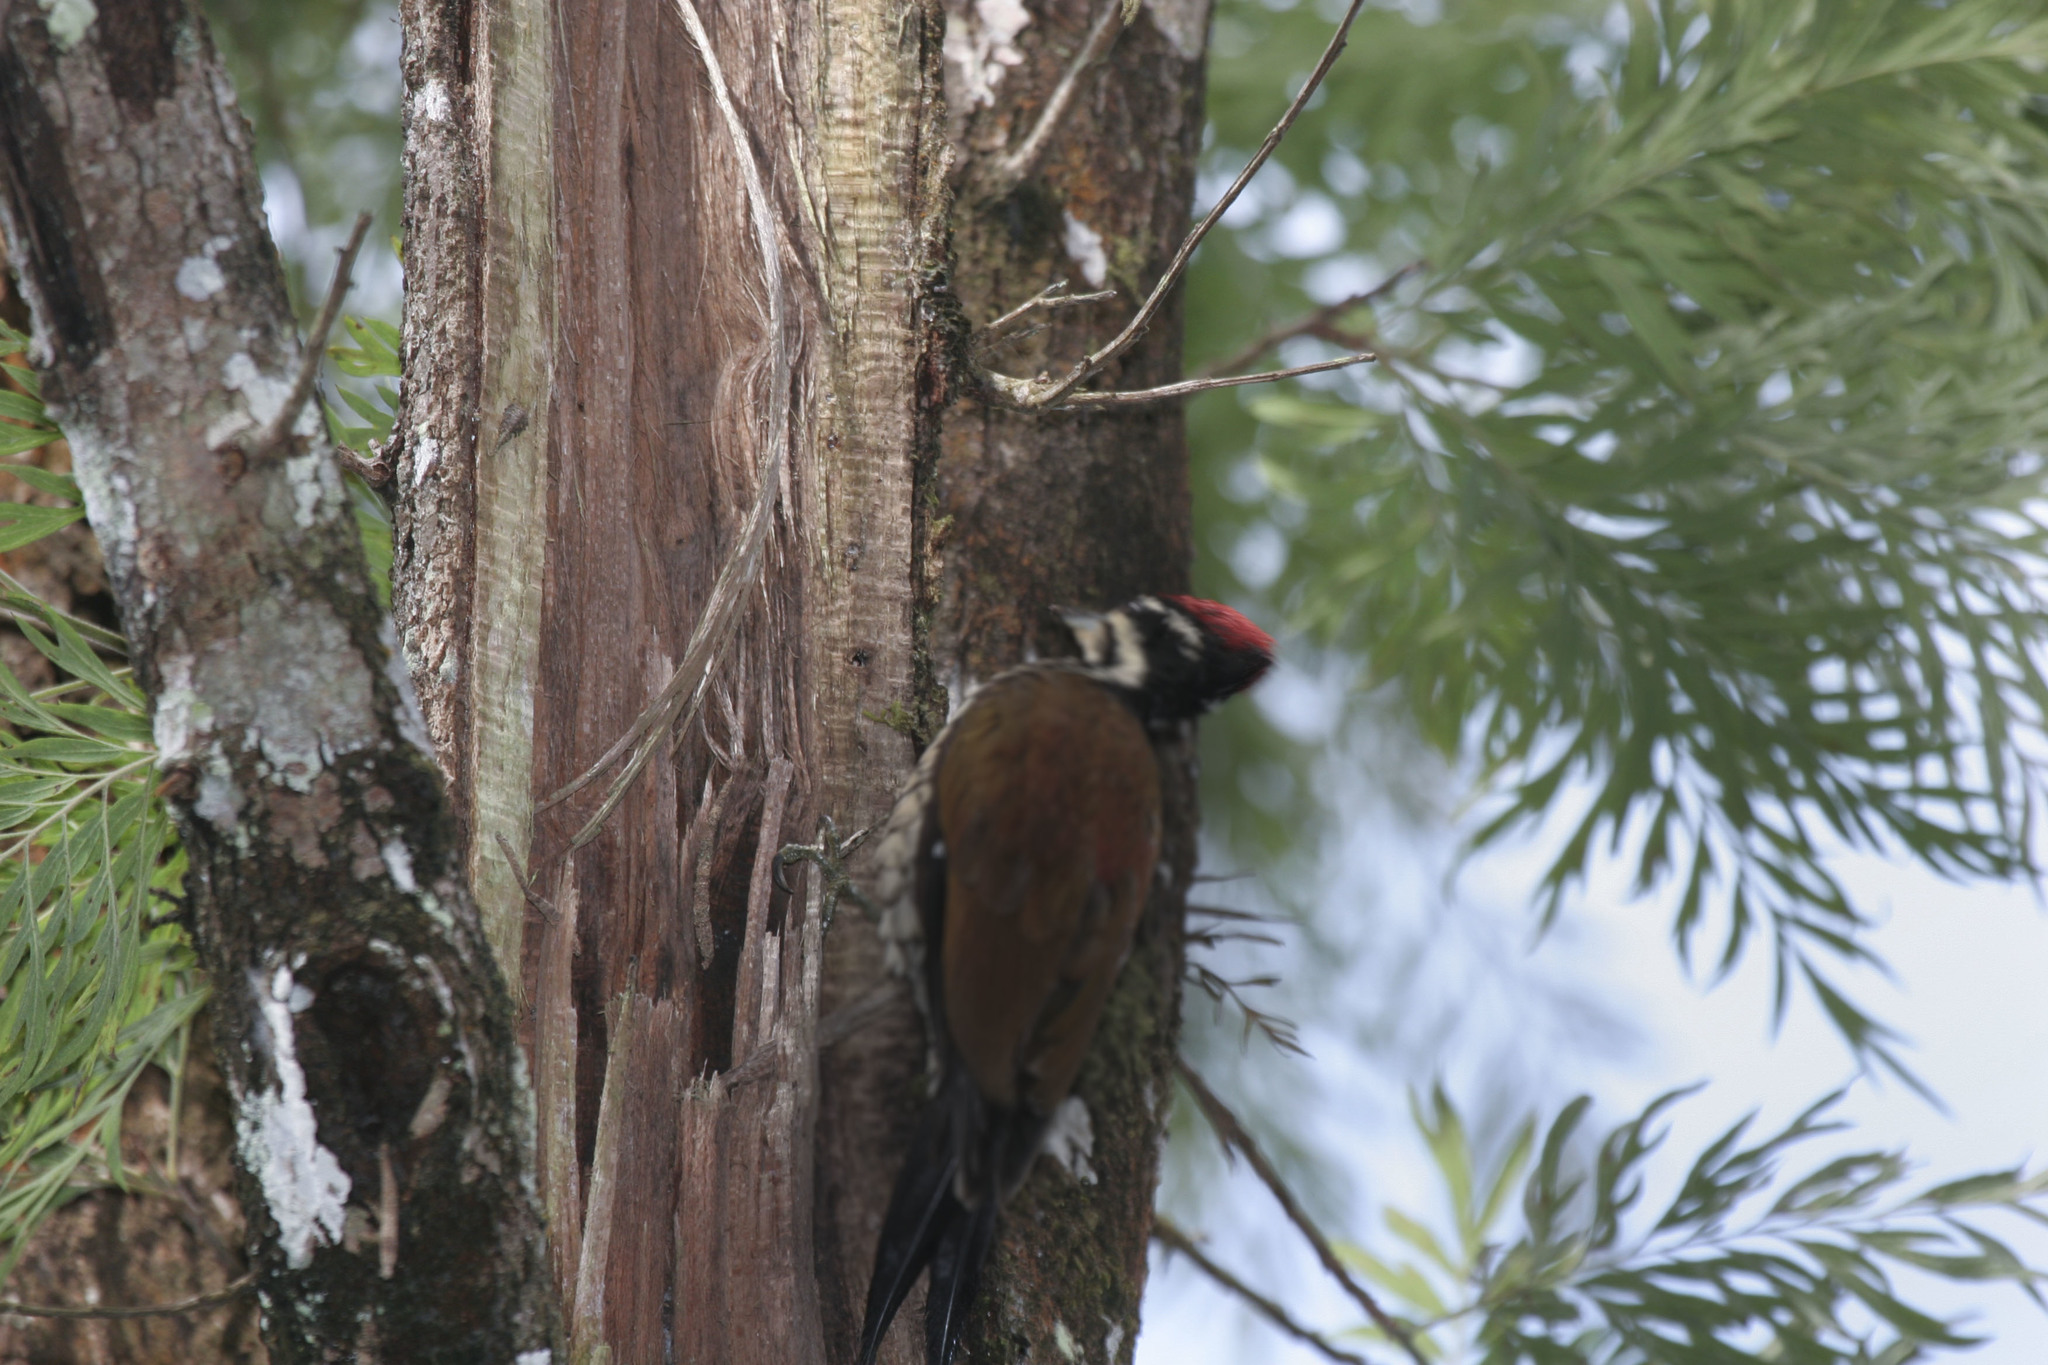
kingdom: Plantae
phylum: Tracheophyta
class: Magnoliopsida
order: Proteales
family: Proteaceae
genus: Grevillea
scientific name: Grevillea robusta
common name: Silkoak
